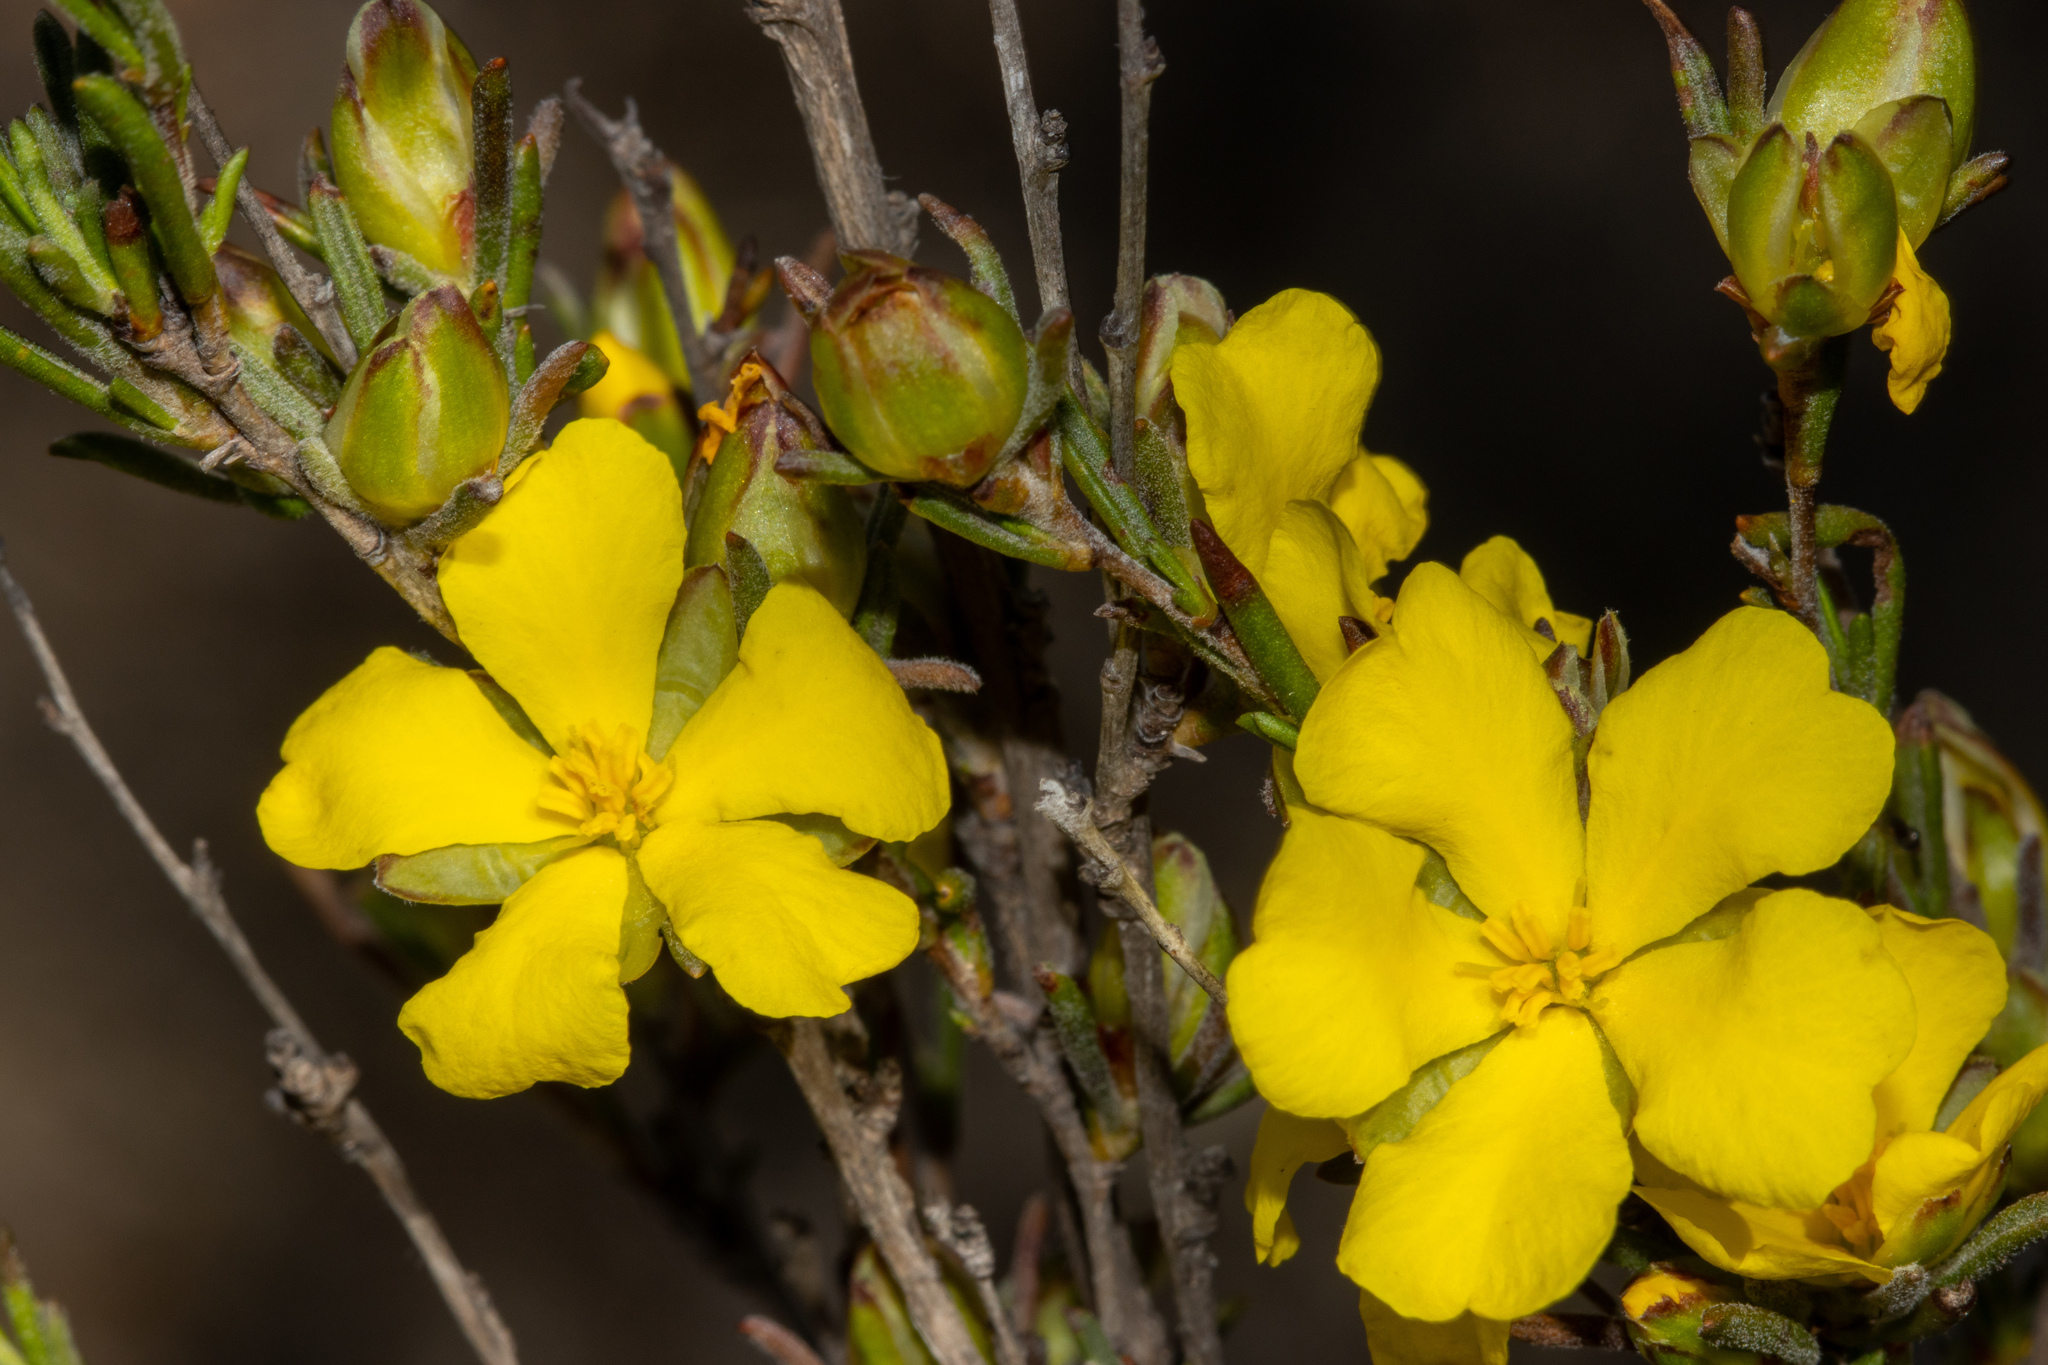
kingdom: Plantae
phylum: Tracheophyta
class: Magnoliopsida
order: Dilleniales
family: Dilleniaceae
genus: Hibbertia
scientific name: Hibbertia virgata
